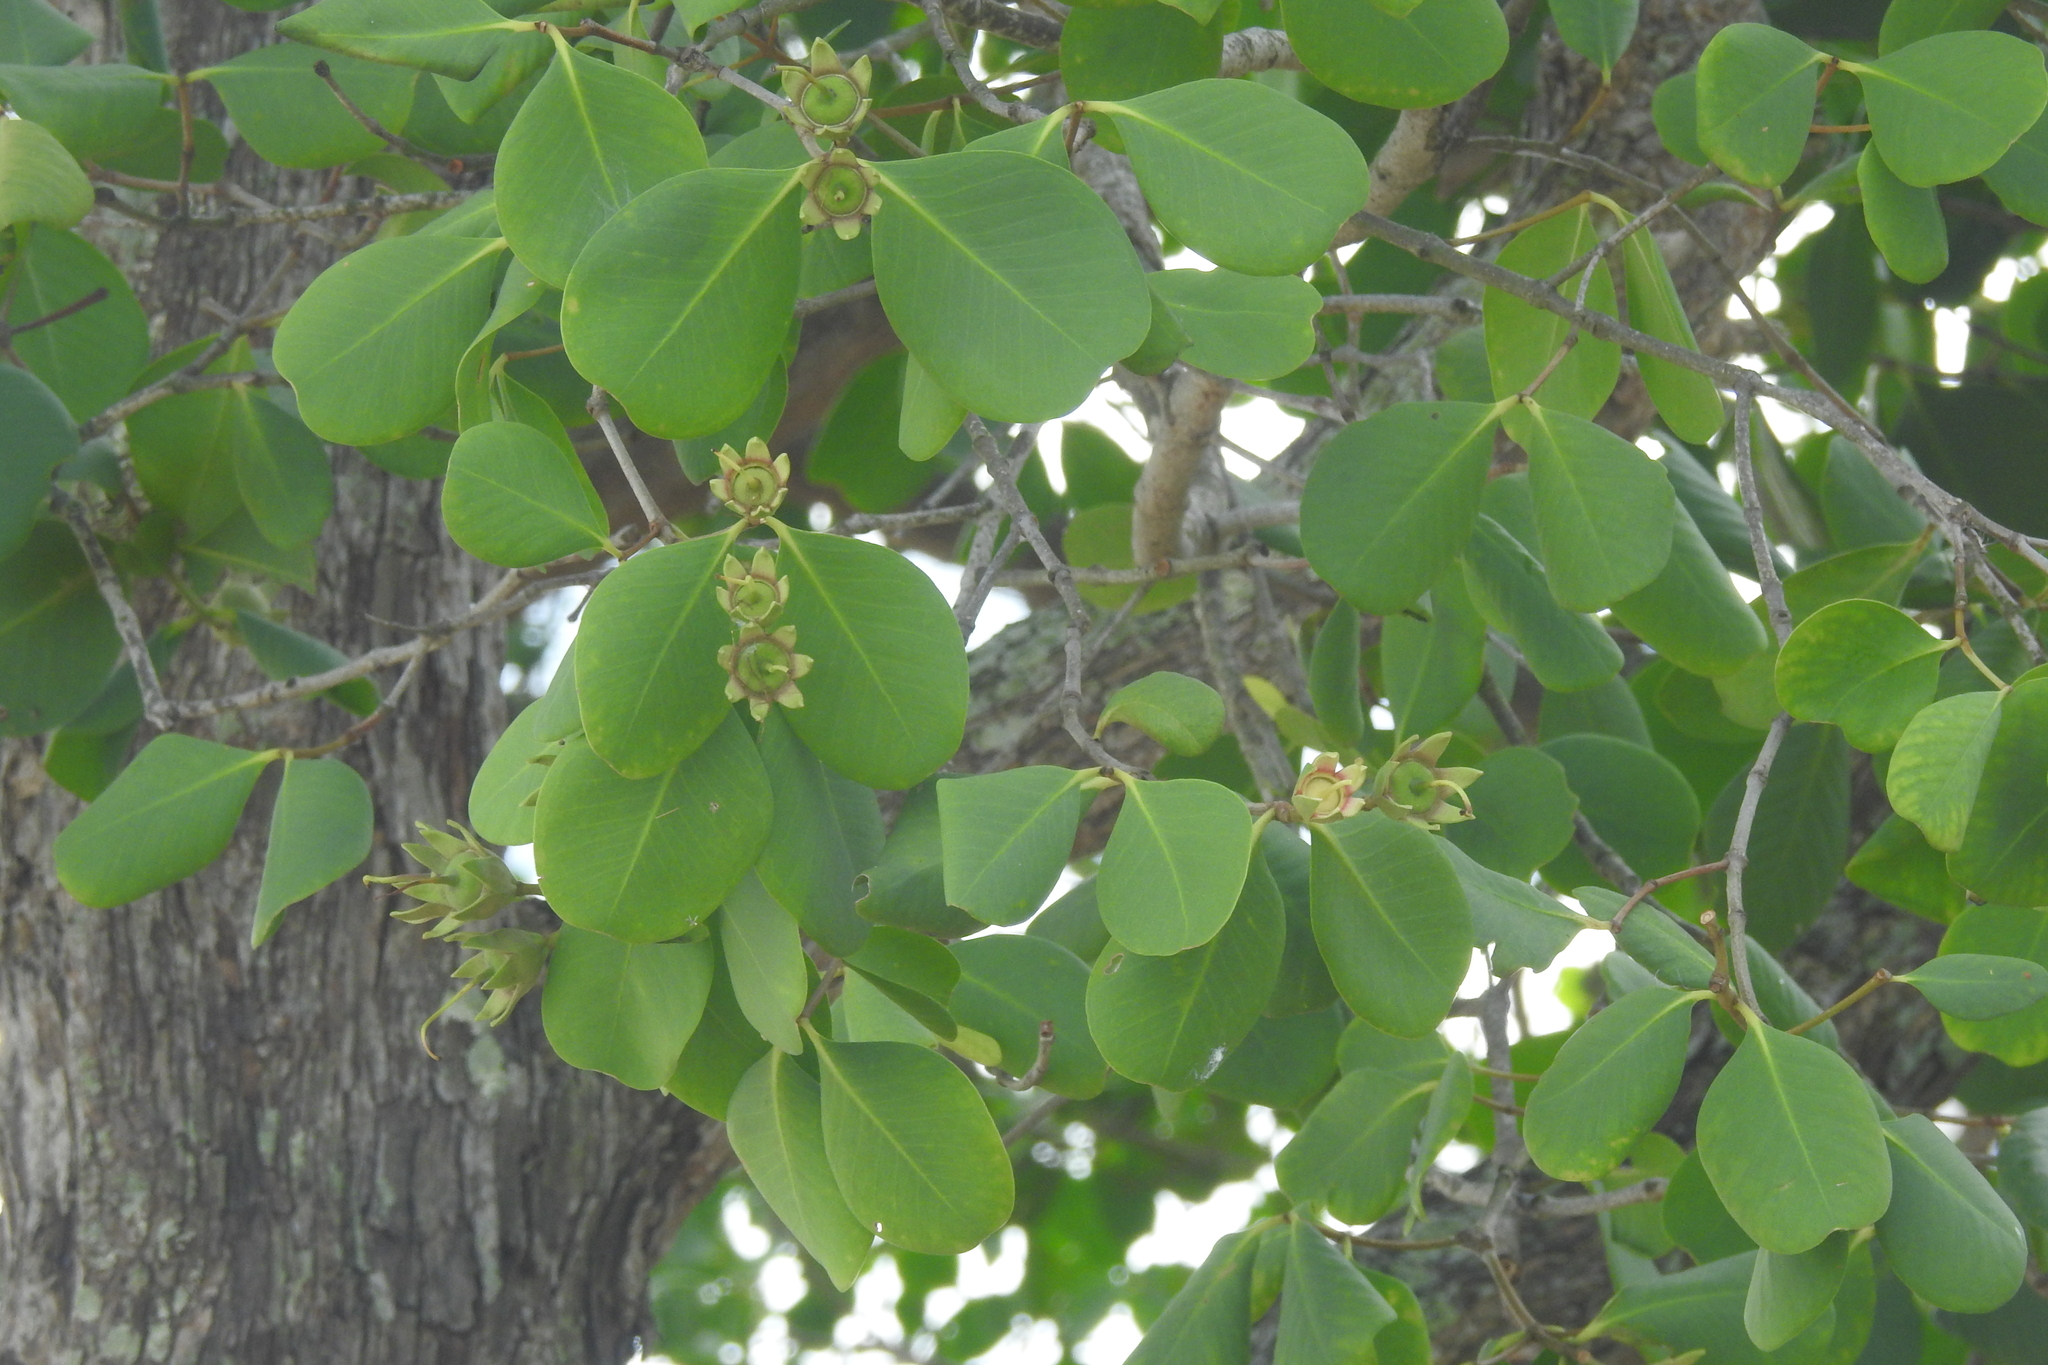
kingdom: Plantae
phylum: Tracheophyta
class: Magnoliopsida
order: Myrtales
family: Lythraceae
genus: Sonneratia
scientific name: Sonneratia alba
